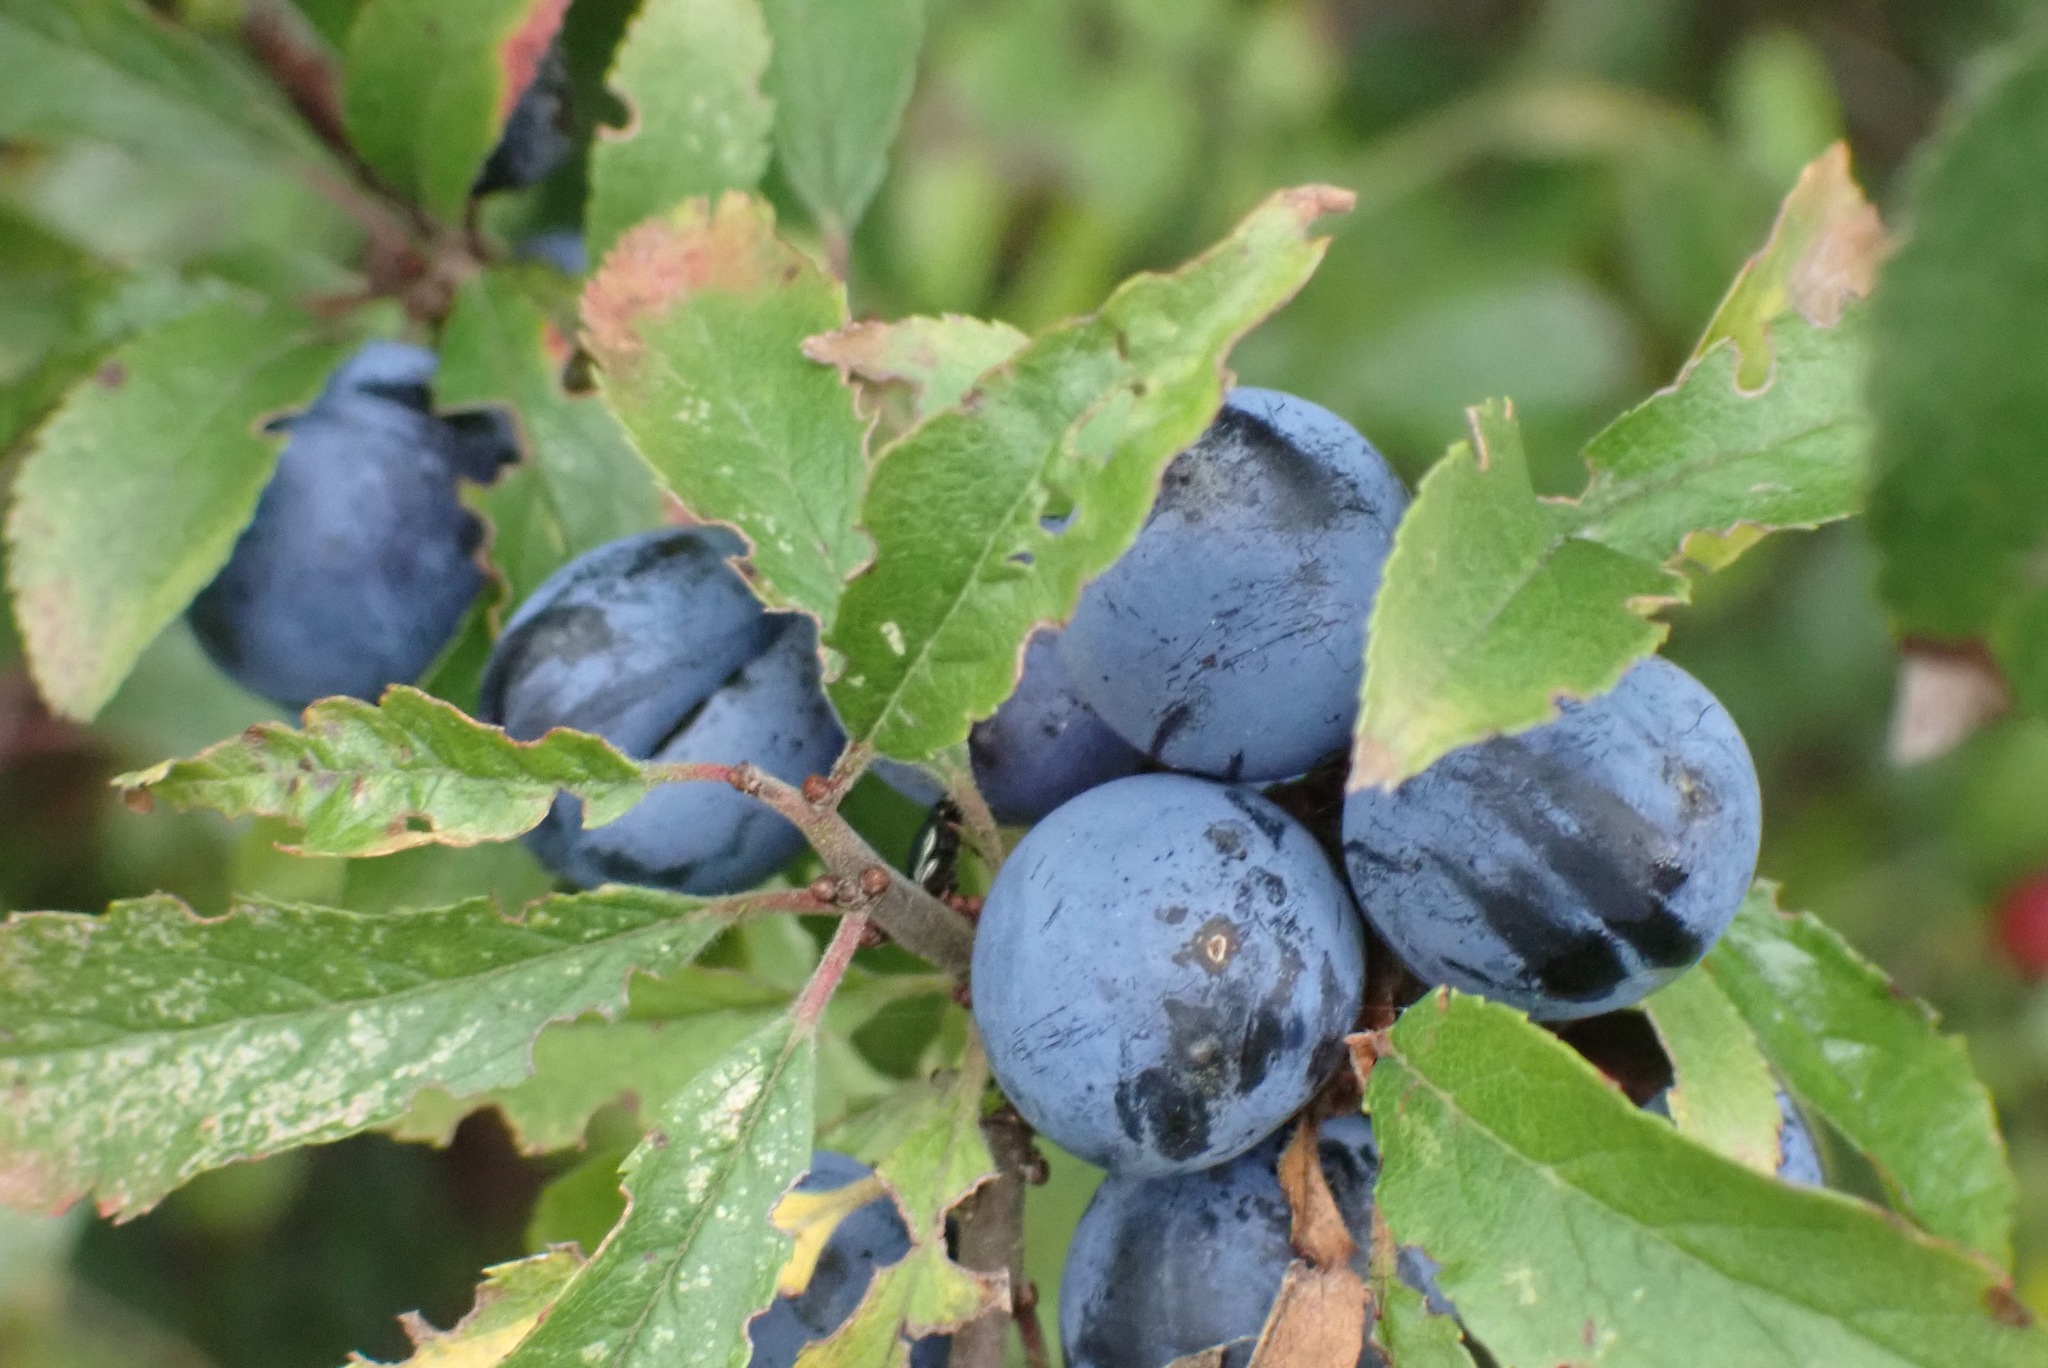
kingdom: Plantae
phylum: Tracheophyta
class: Magnoliopsida
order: Rosales
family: Rosaceae
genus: Prunus
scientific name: Prunus spinosa
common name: Blackthorn
